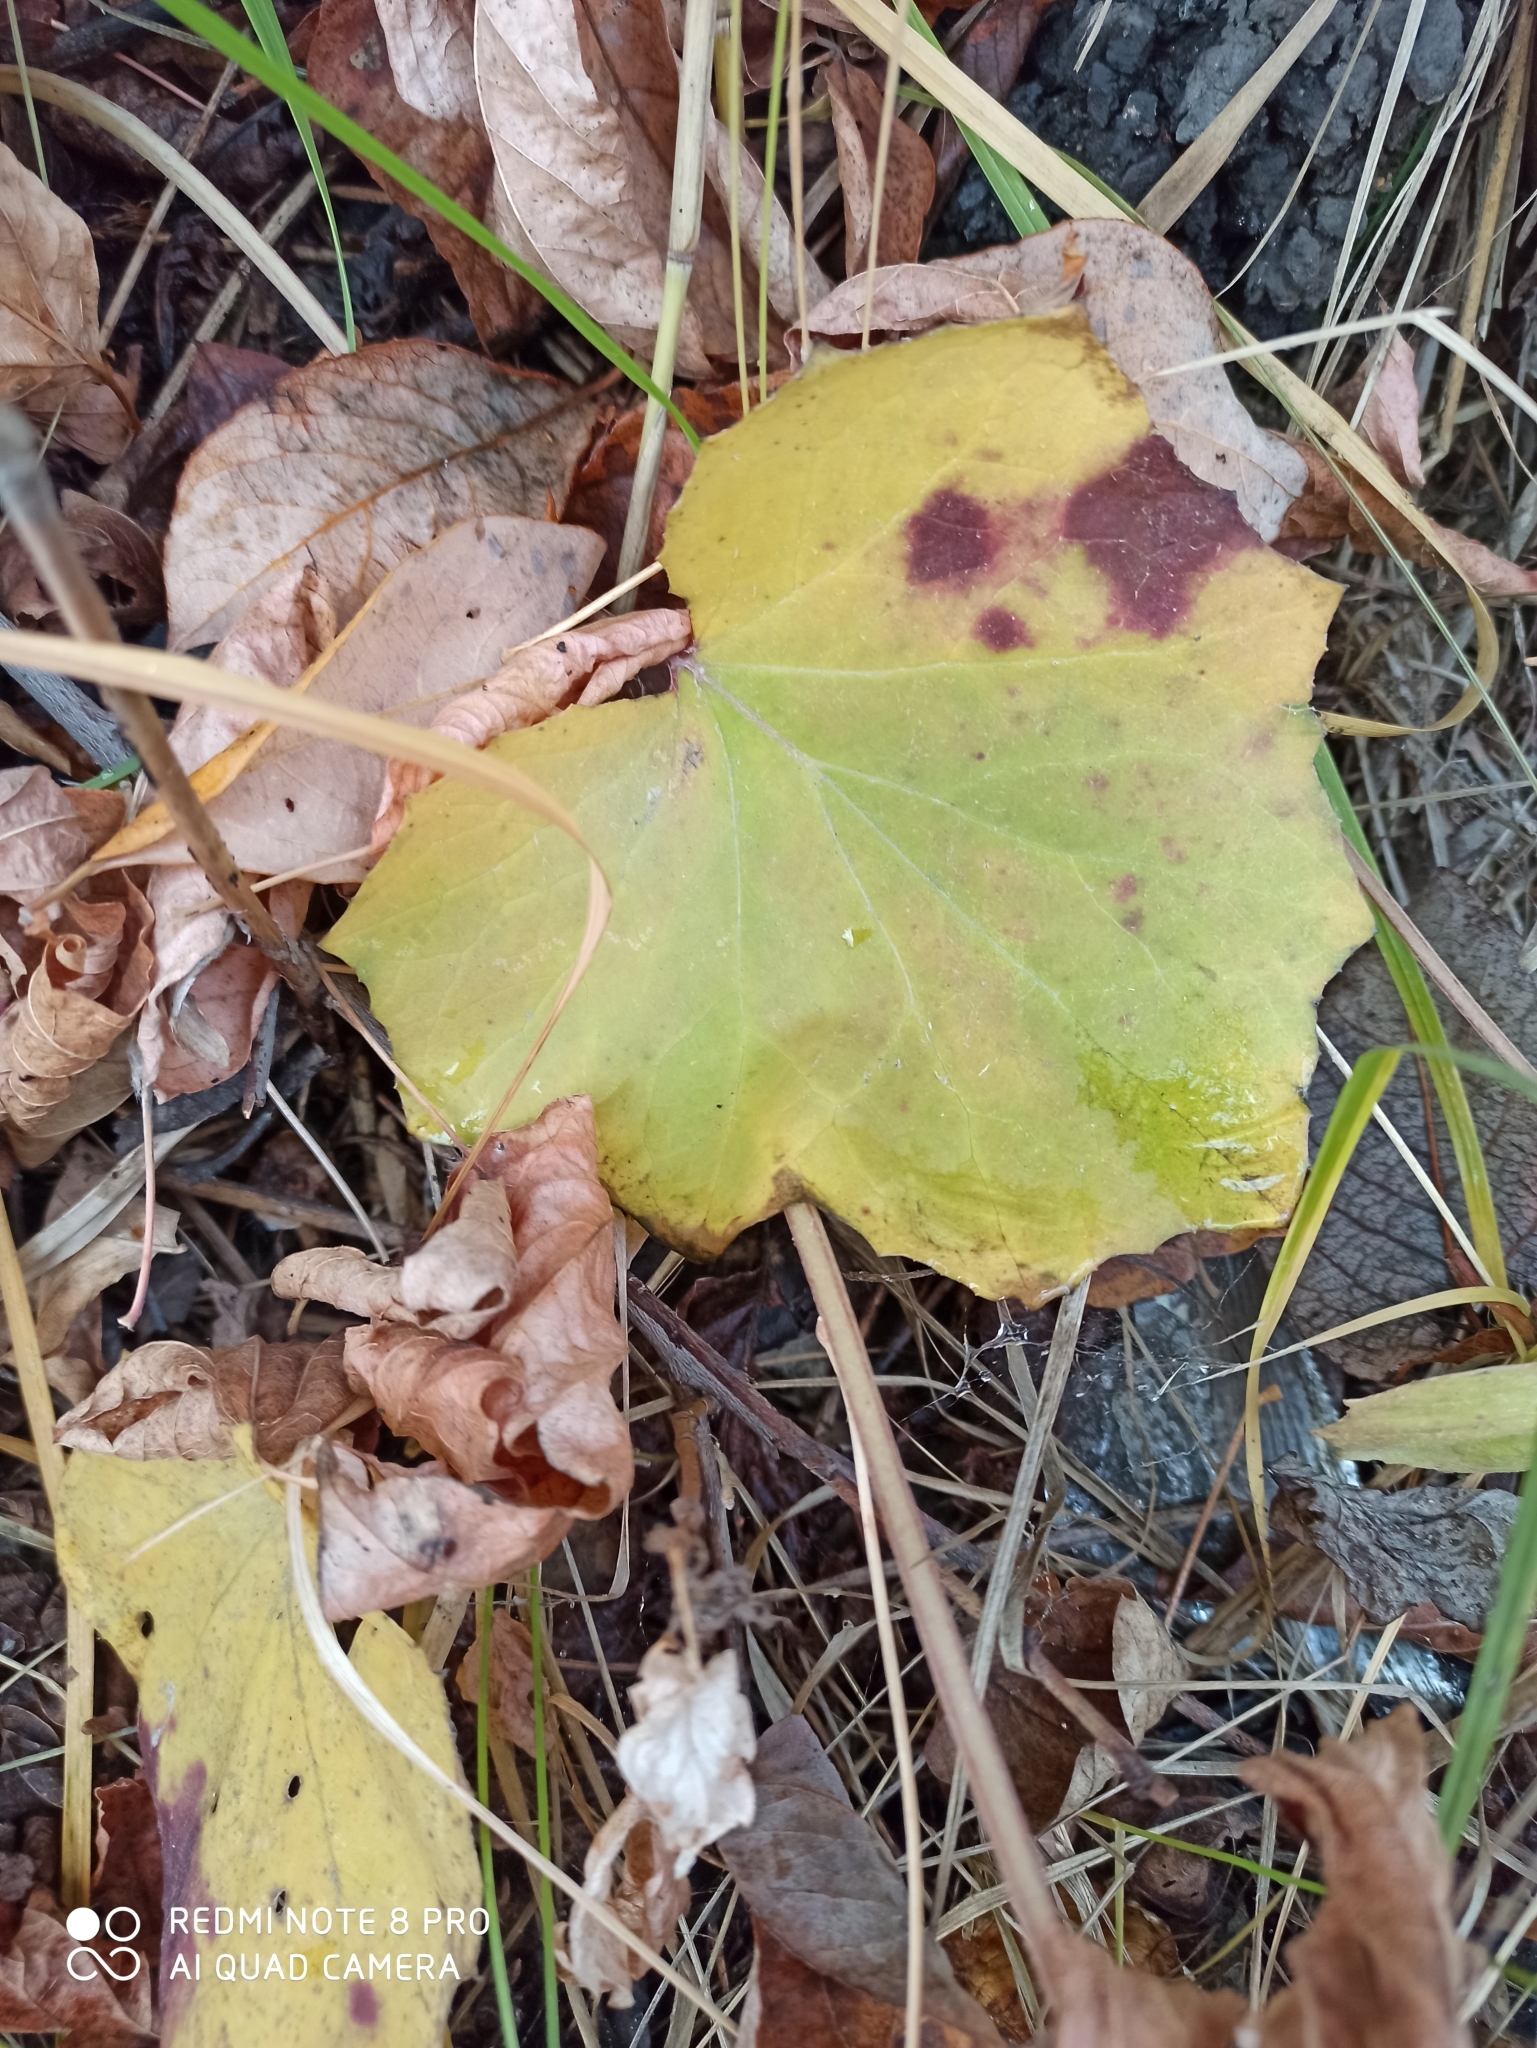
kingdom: Plantae
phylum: Tracheophyta
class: Magnoliopsida
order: Asterales
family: Asteraceae
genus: Tussilago
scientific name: Tussilago farfara
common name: Coltsfoot
